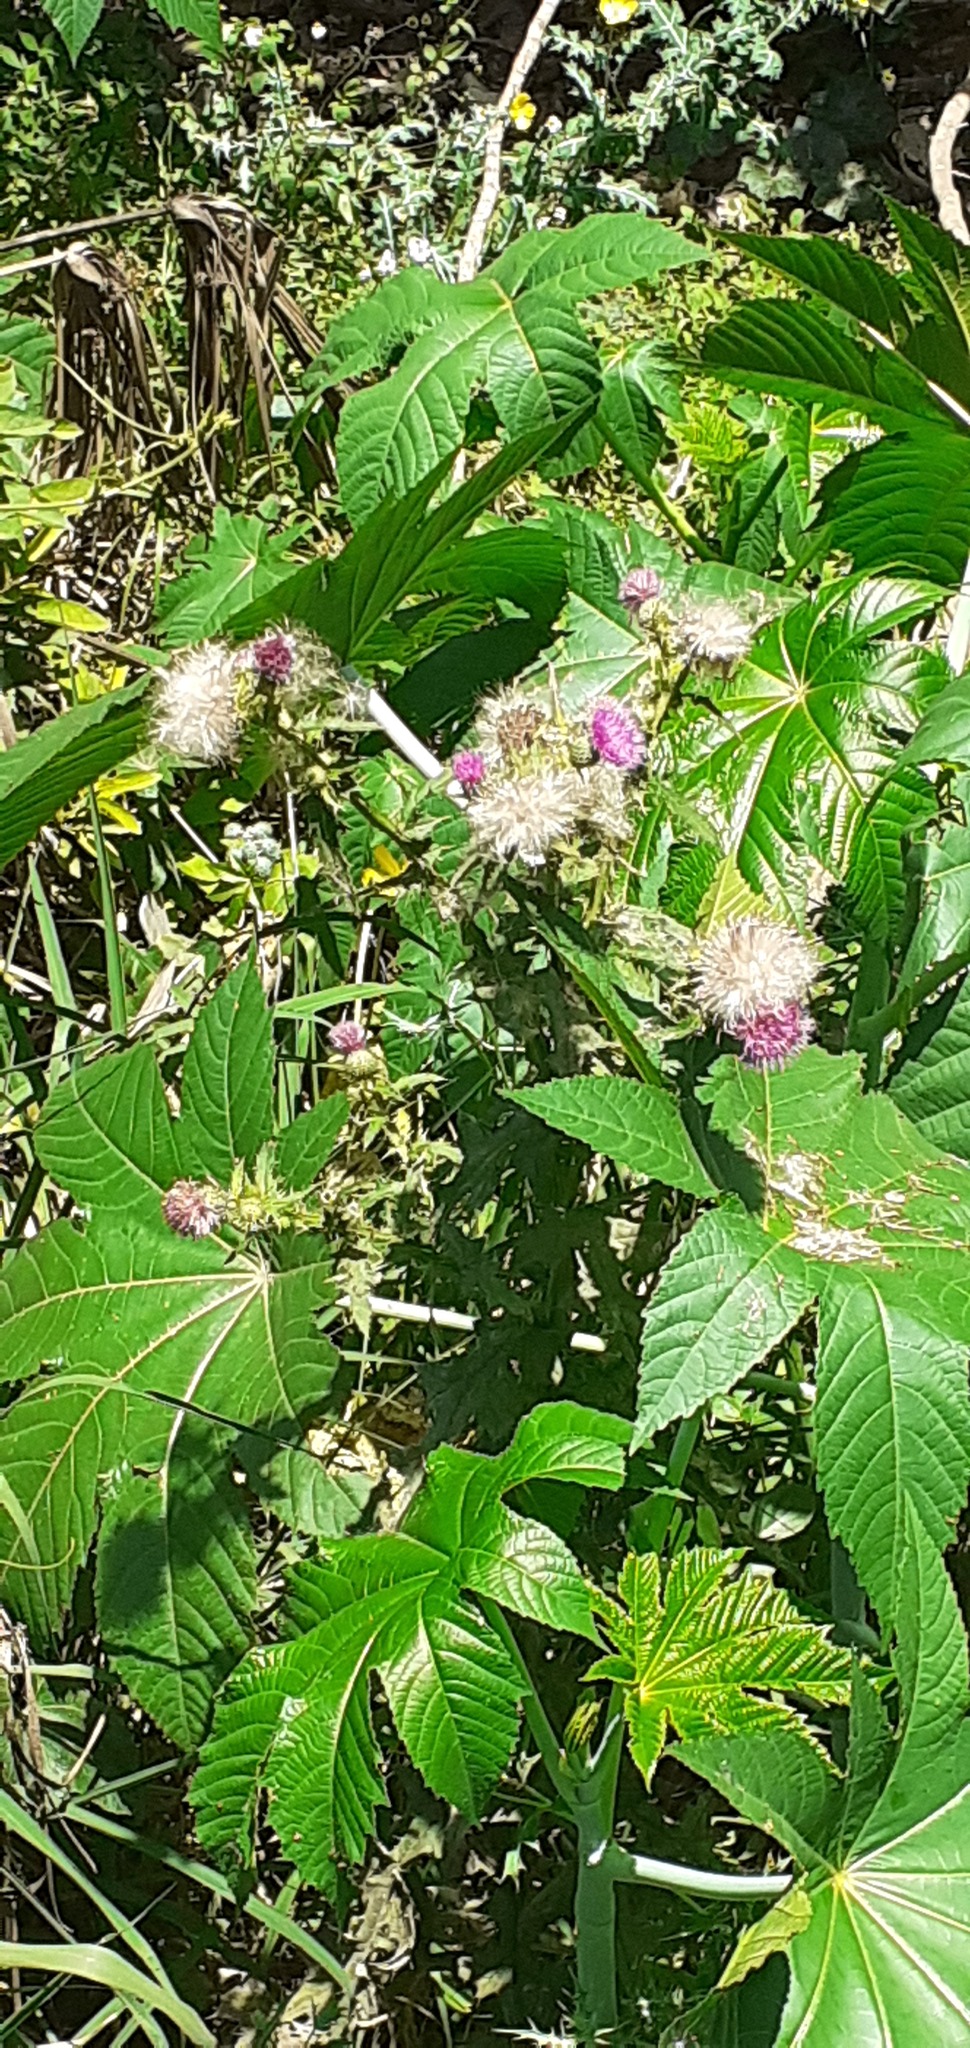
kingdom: Plantae
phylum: Tracheophyta
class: Magnoliopsida
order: Malpighiales
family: Euphorbiaceae
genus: Ricinus
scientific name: Ricinus communis
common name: Castor-oil-plant
